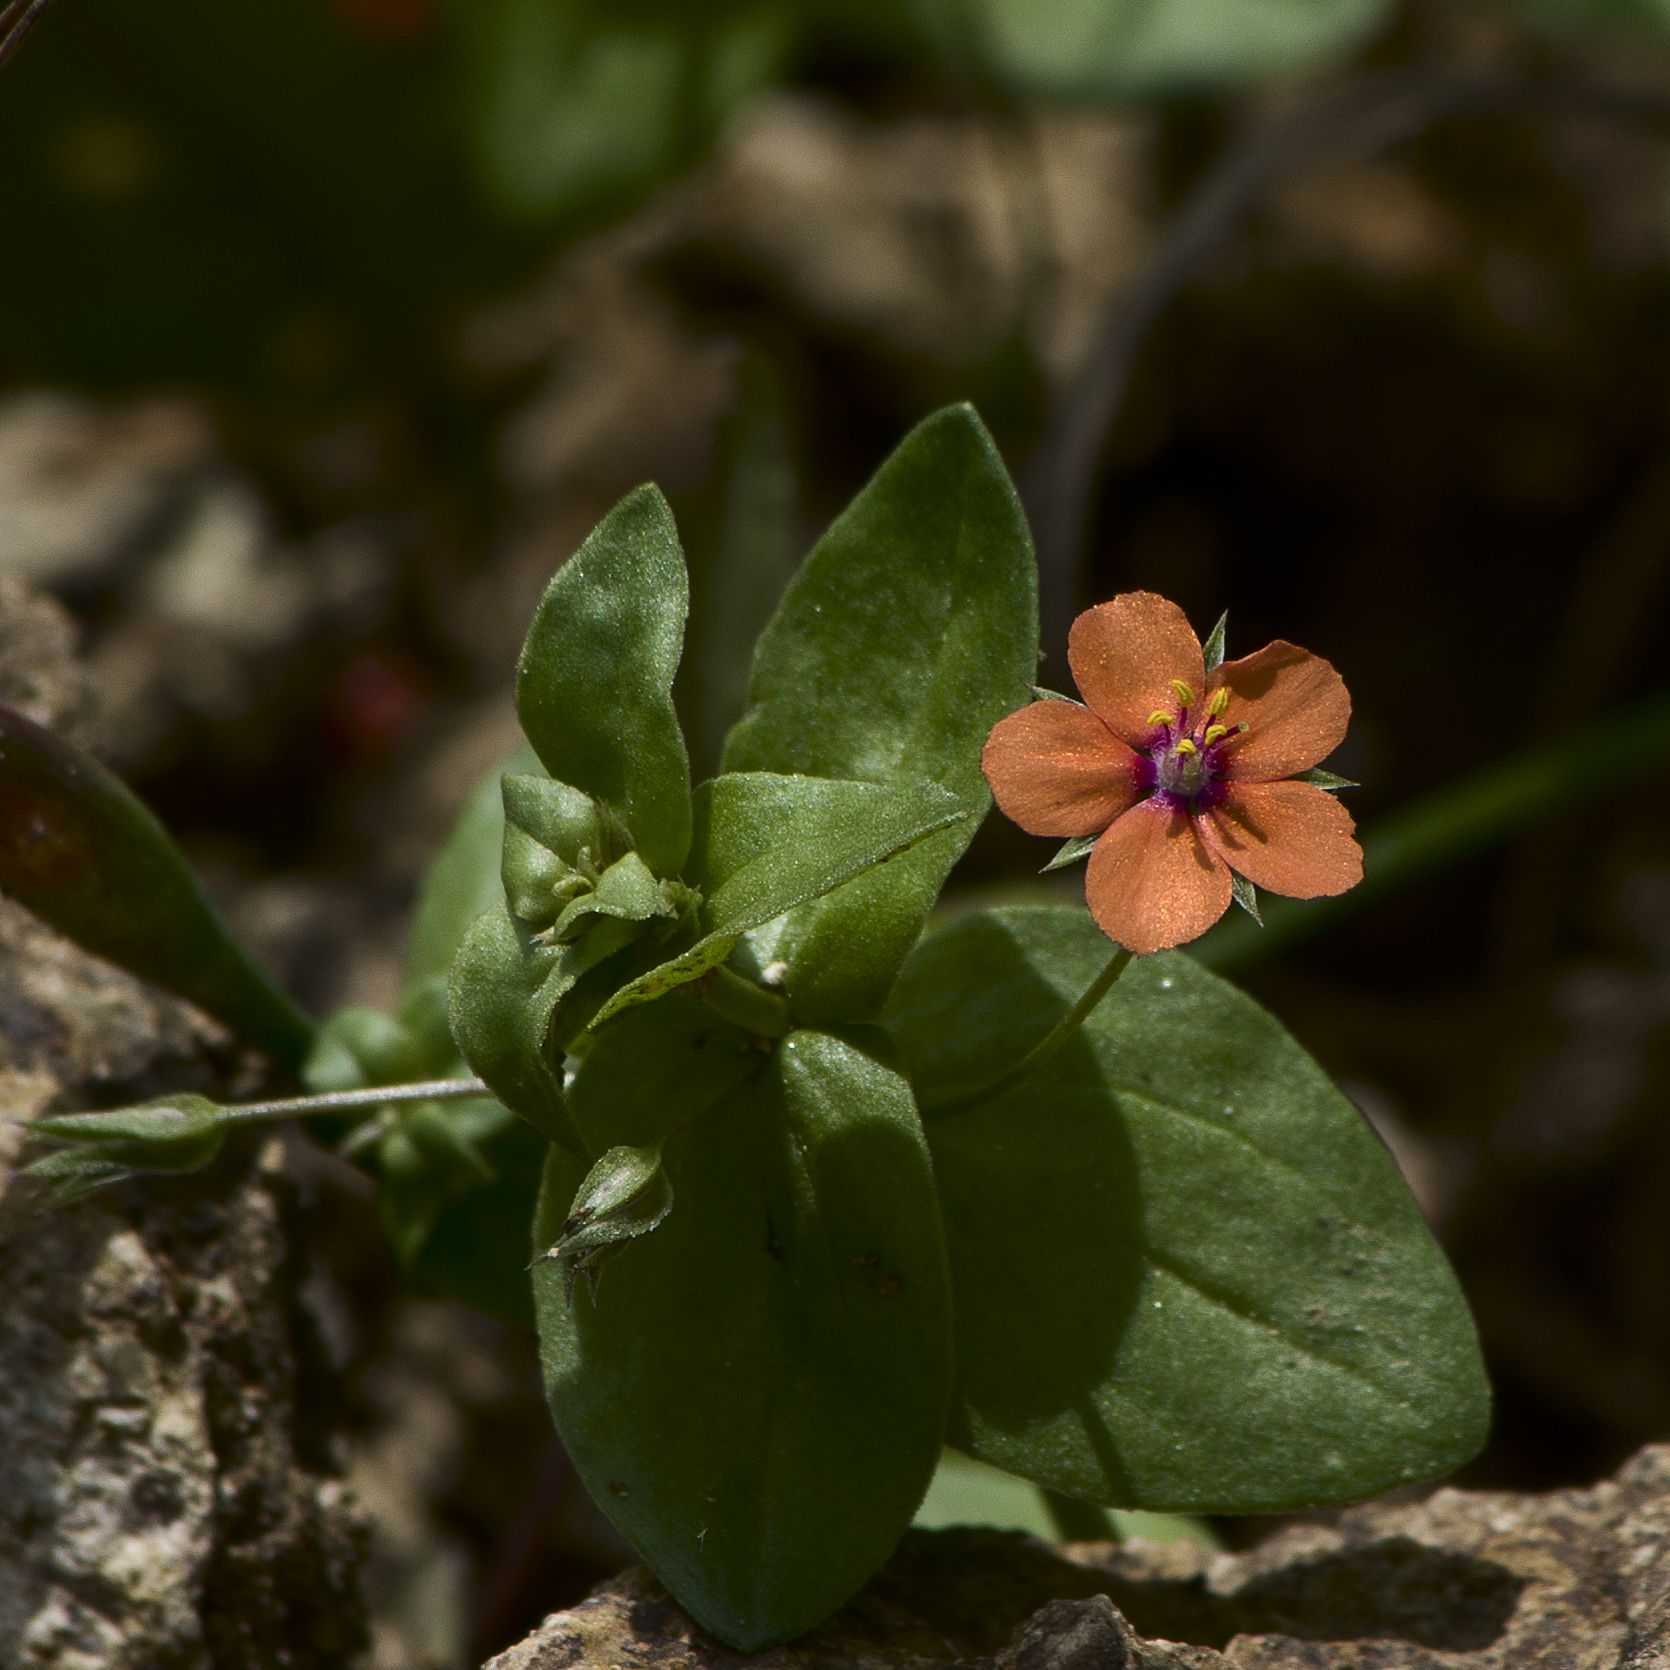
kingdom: Plantae
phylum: Tracheophyta
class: Magnoliopsida
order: Ericales
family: Primulaceae
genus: Lysimachia
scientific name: Lysimachia arvensis
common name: Scarlet pimpernel
